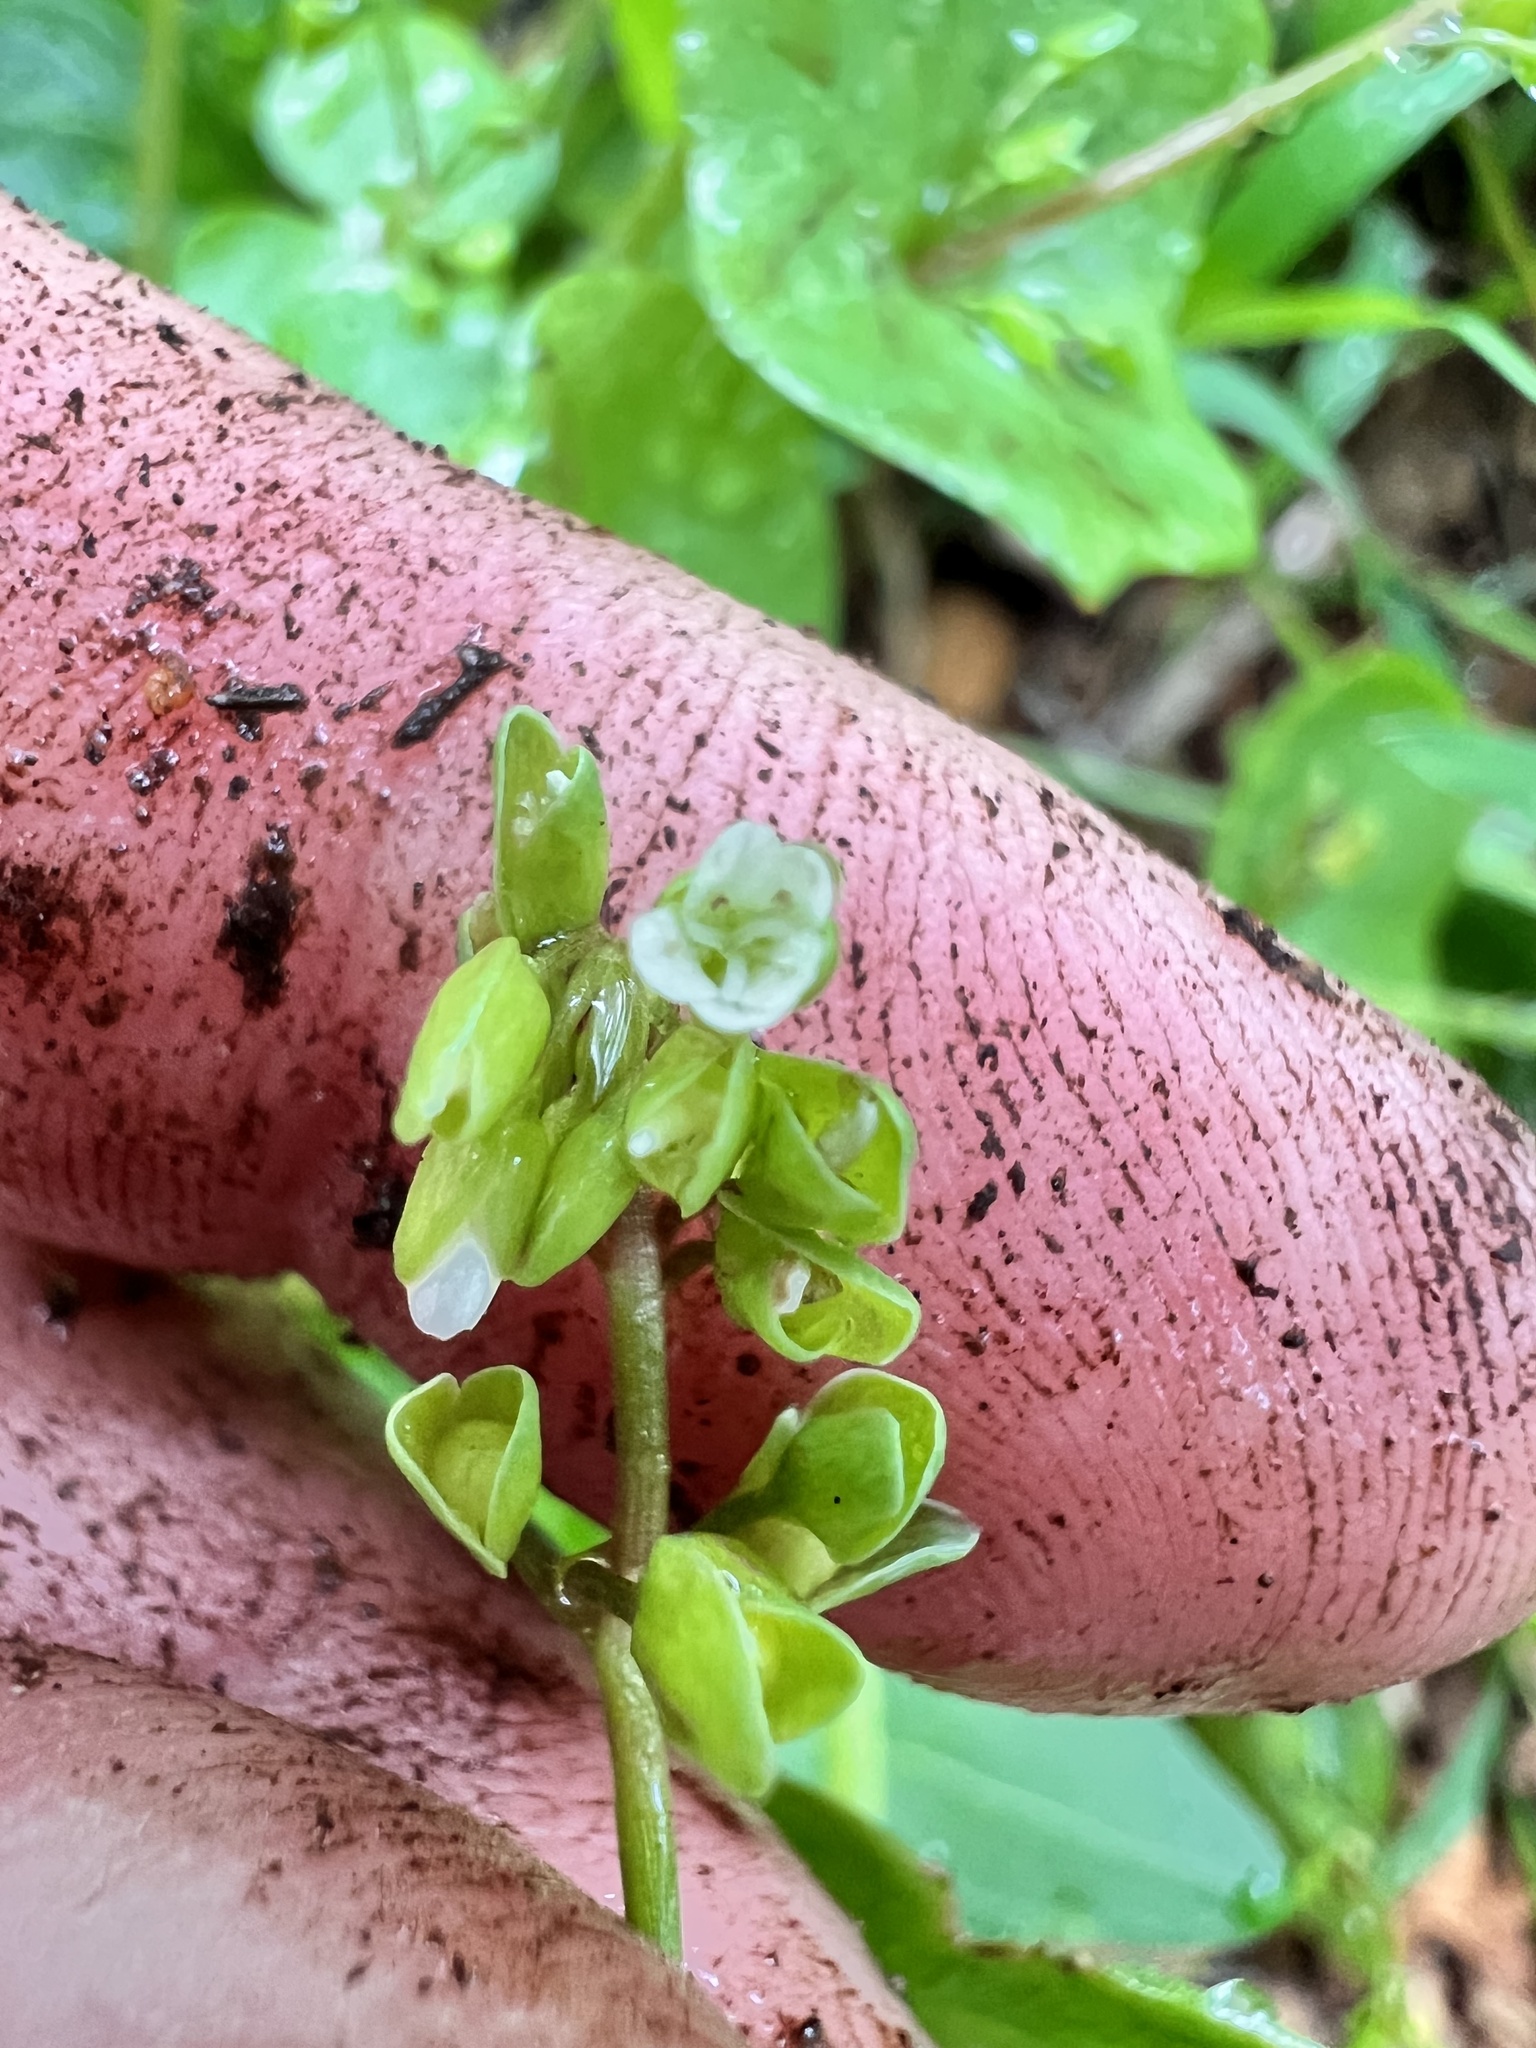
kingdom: Plantae
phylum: Tracheophyta
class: Magnoliopsida
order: Caryophyllales
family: Montiaceae
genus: Claytonia
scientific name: Claytonia perfoliata
